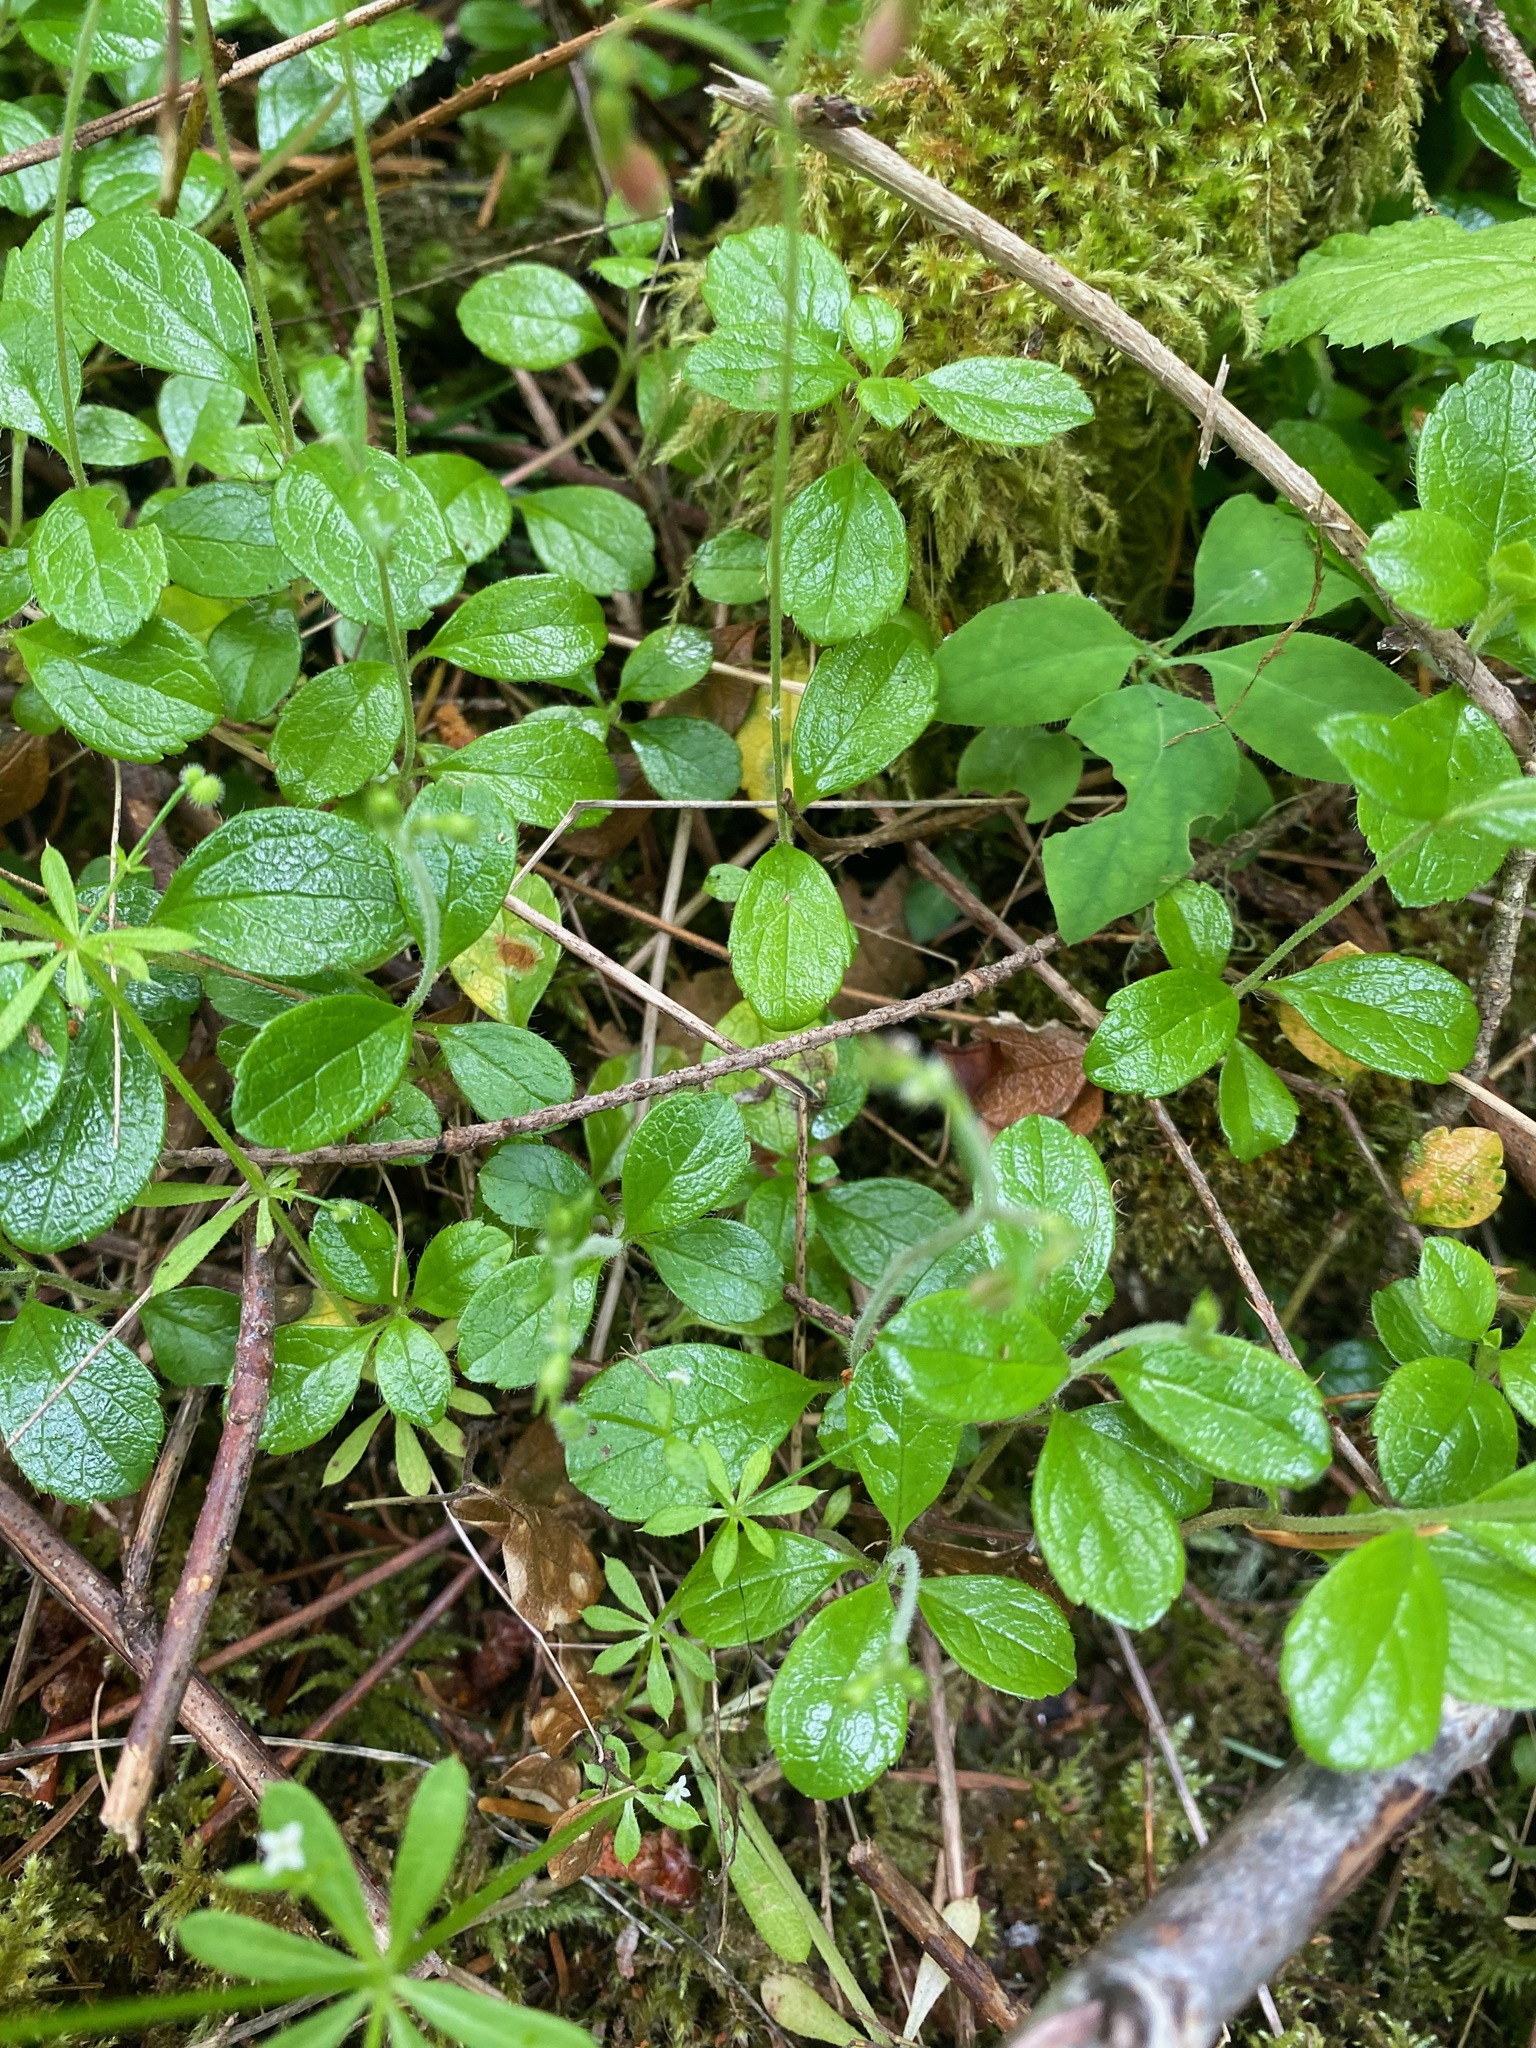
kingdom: Plantae
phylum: Tracheophyta
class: Magnoliopsida
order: Dipsacales
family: Caprifoliaceae
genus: Linnaea
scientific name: Linnaea borealis
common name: Twinflower
